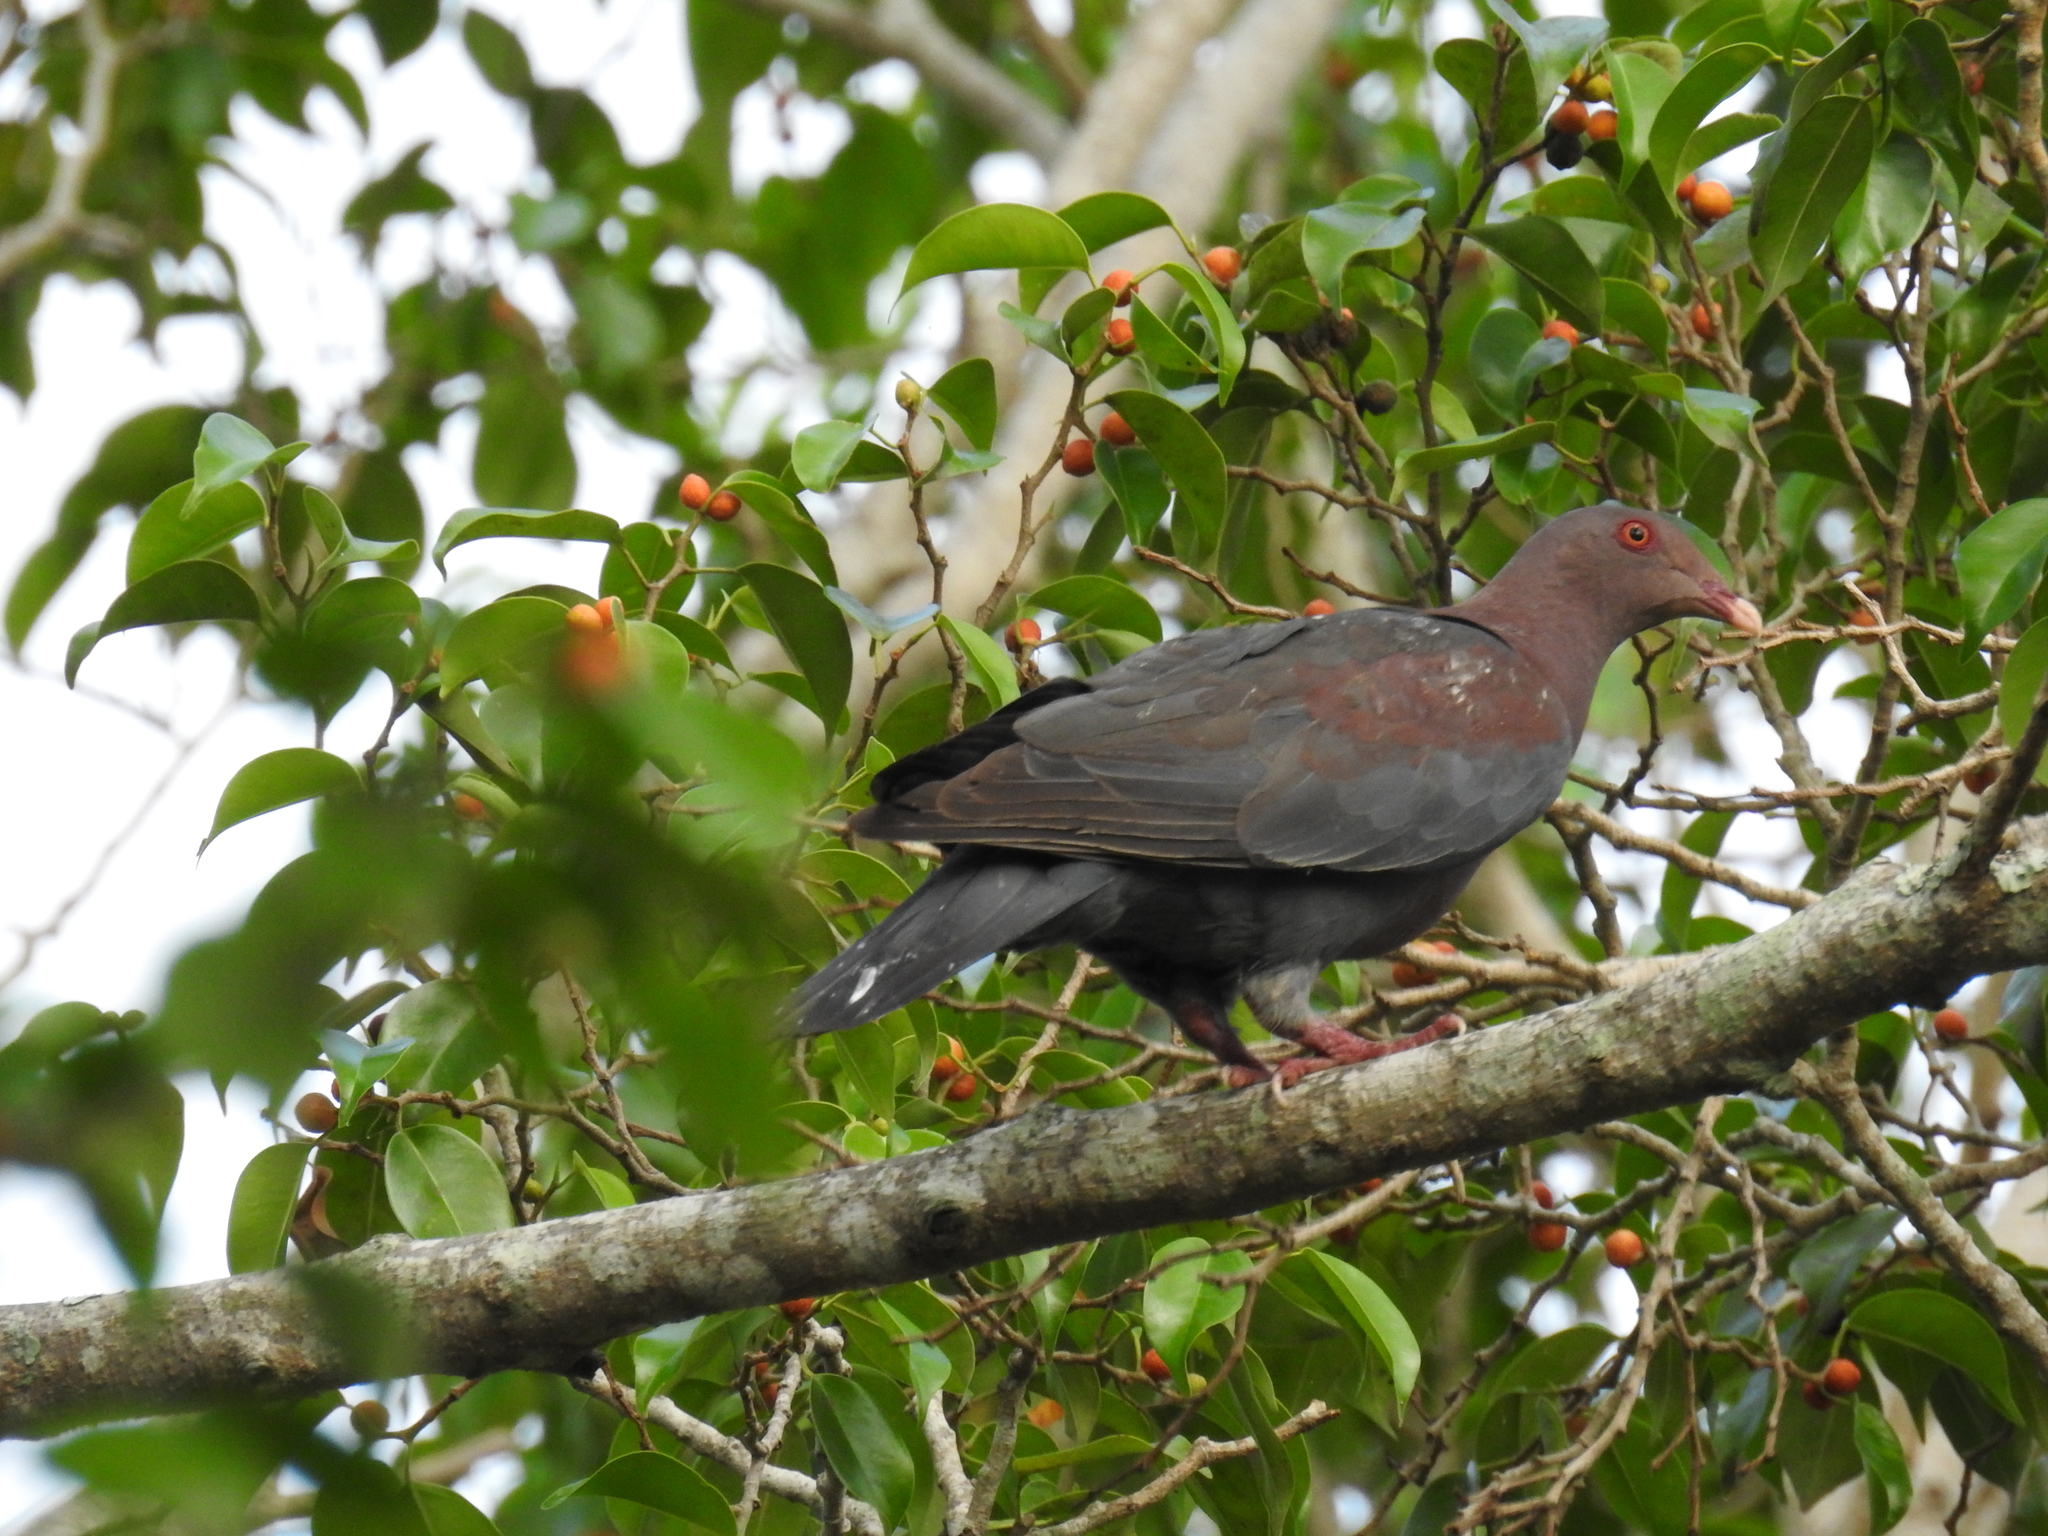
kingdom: Animalia
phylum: Chordata
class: Aves
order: Columbiformes
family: Columbidae
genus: Patagioenas
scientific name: Patagioenas flavirostris
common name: Red-billed pigeon
